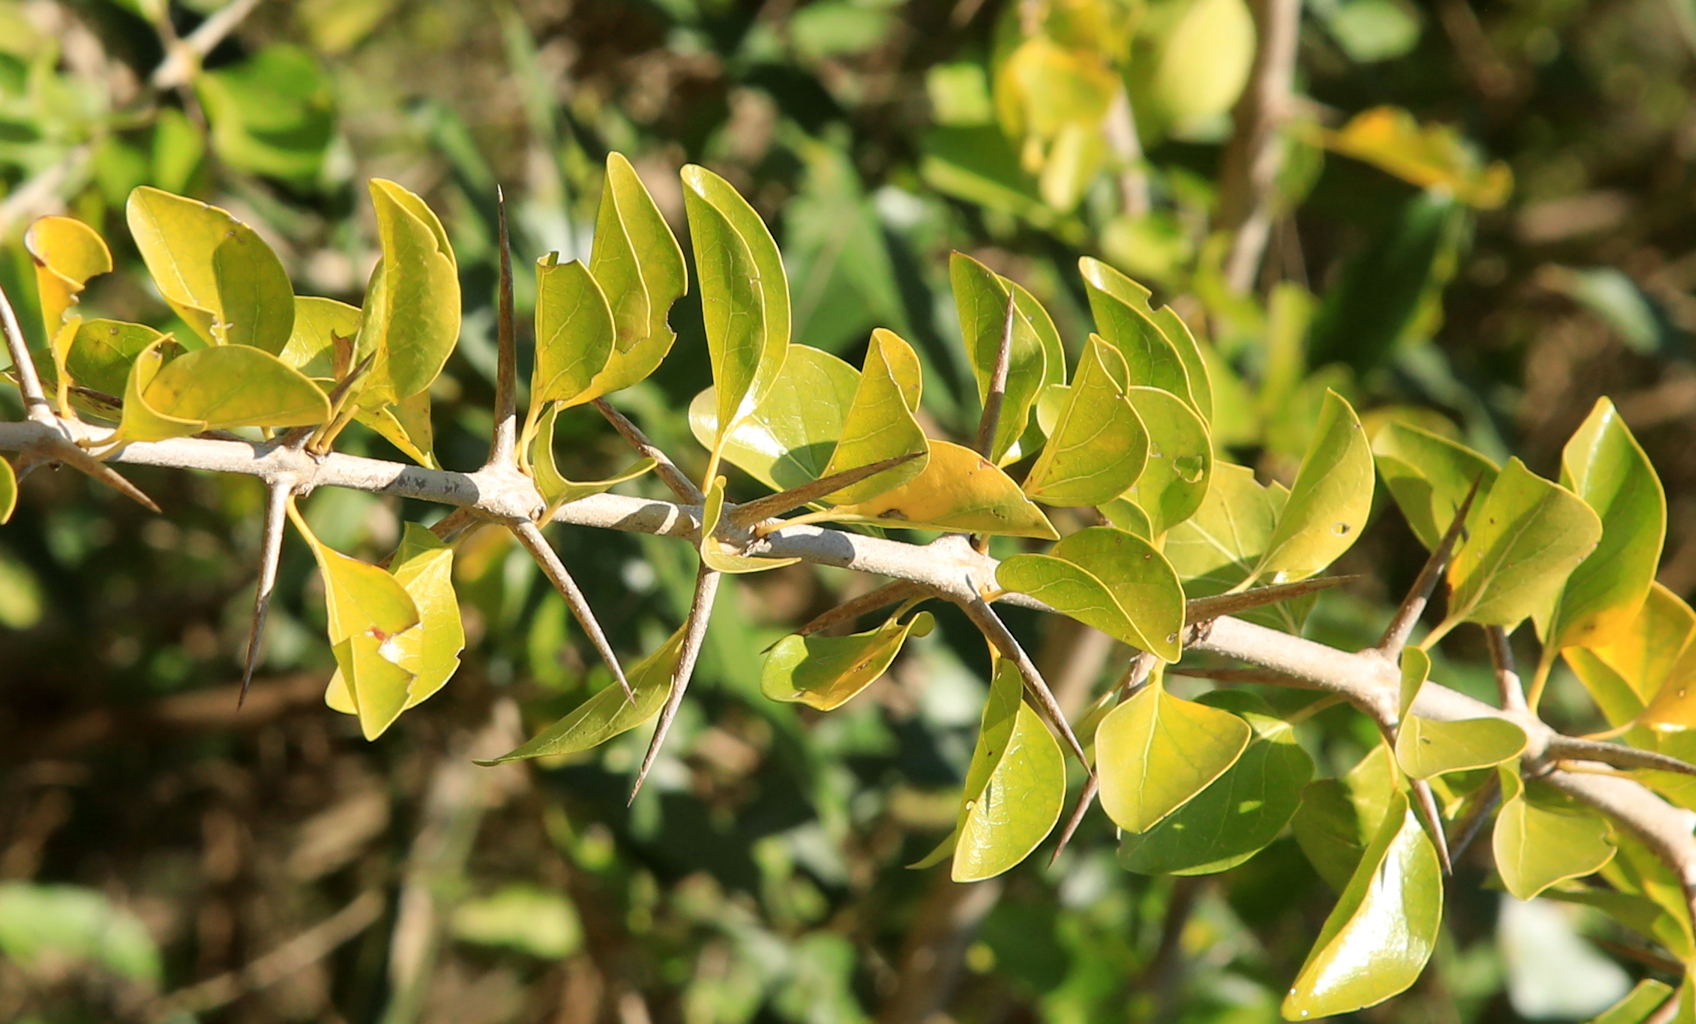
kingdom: Plantae
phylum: Tracheophyta
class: Magnoliopsida
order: Gentianales
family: Rubiaceae
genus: Plectroniella
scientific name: Plectroniella armata
